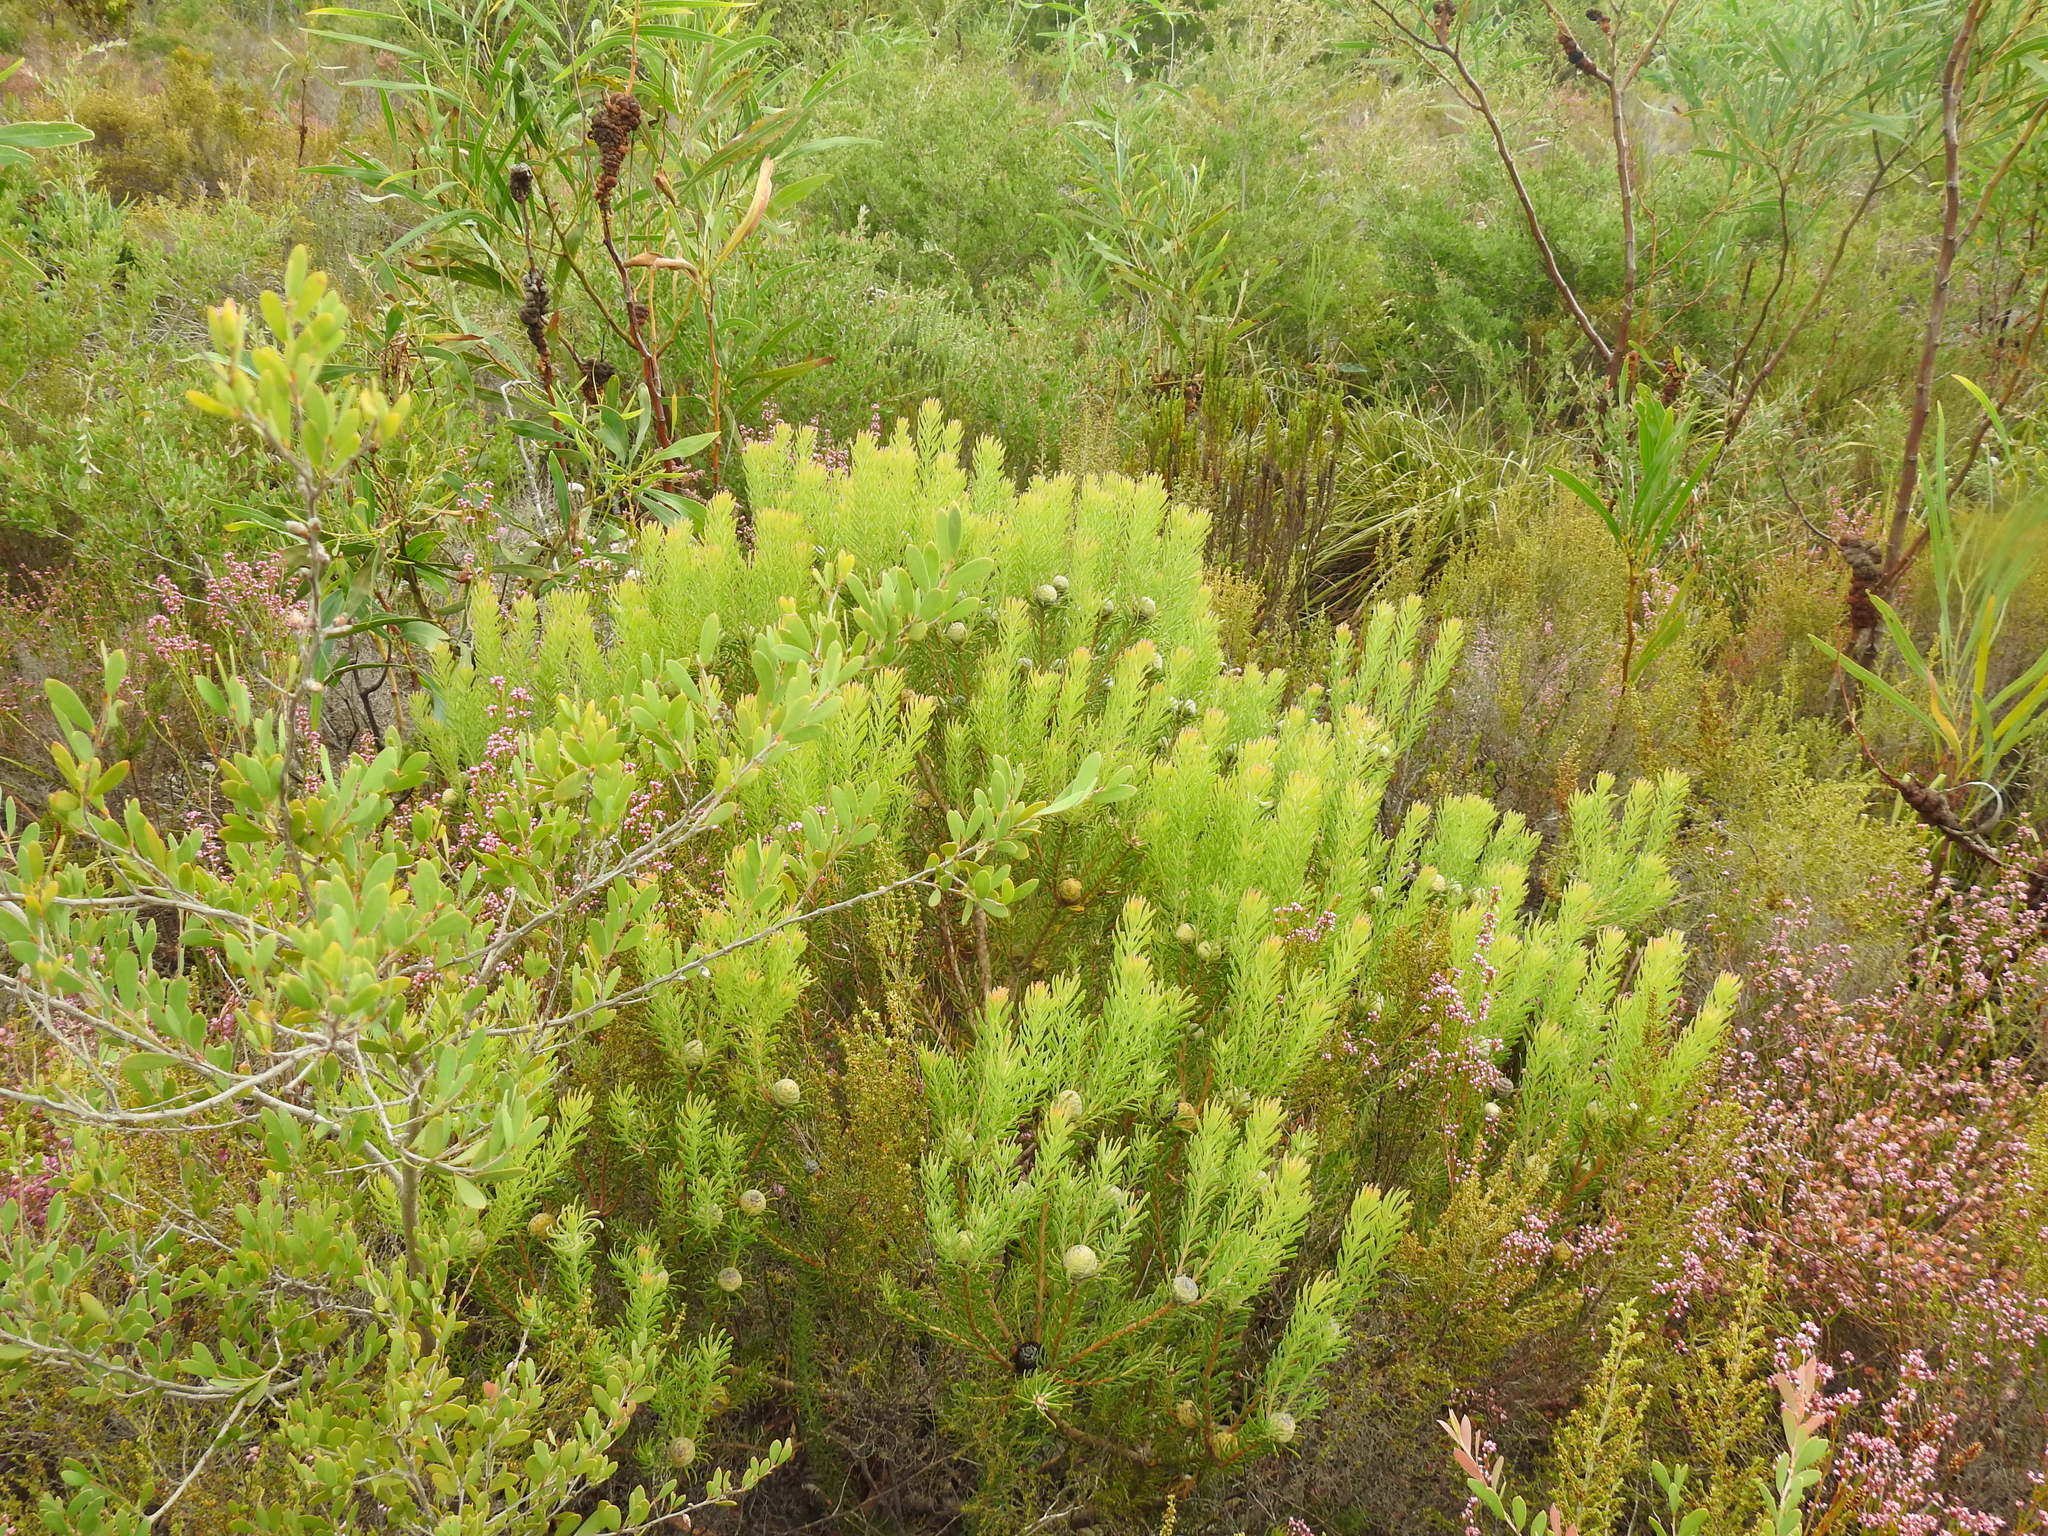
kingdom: Plantae
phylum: Tracheophyta
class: Magnoliopsida
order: Proteales
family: Proteaceae
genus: Leucadendron
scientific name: Leucadendron linifolium
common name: Line-leaf conebush
